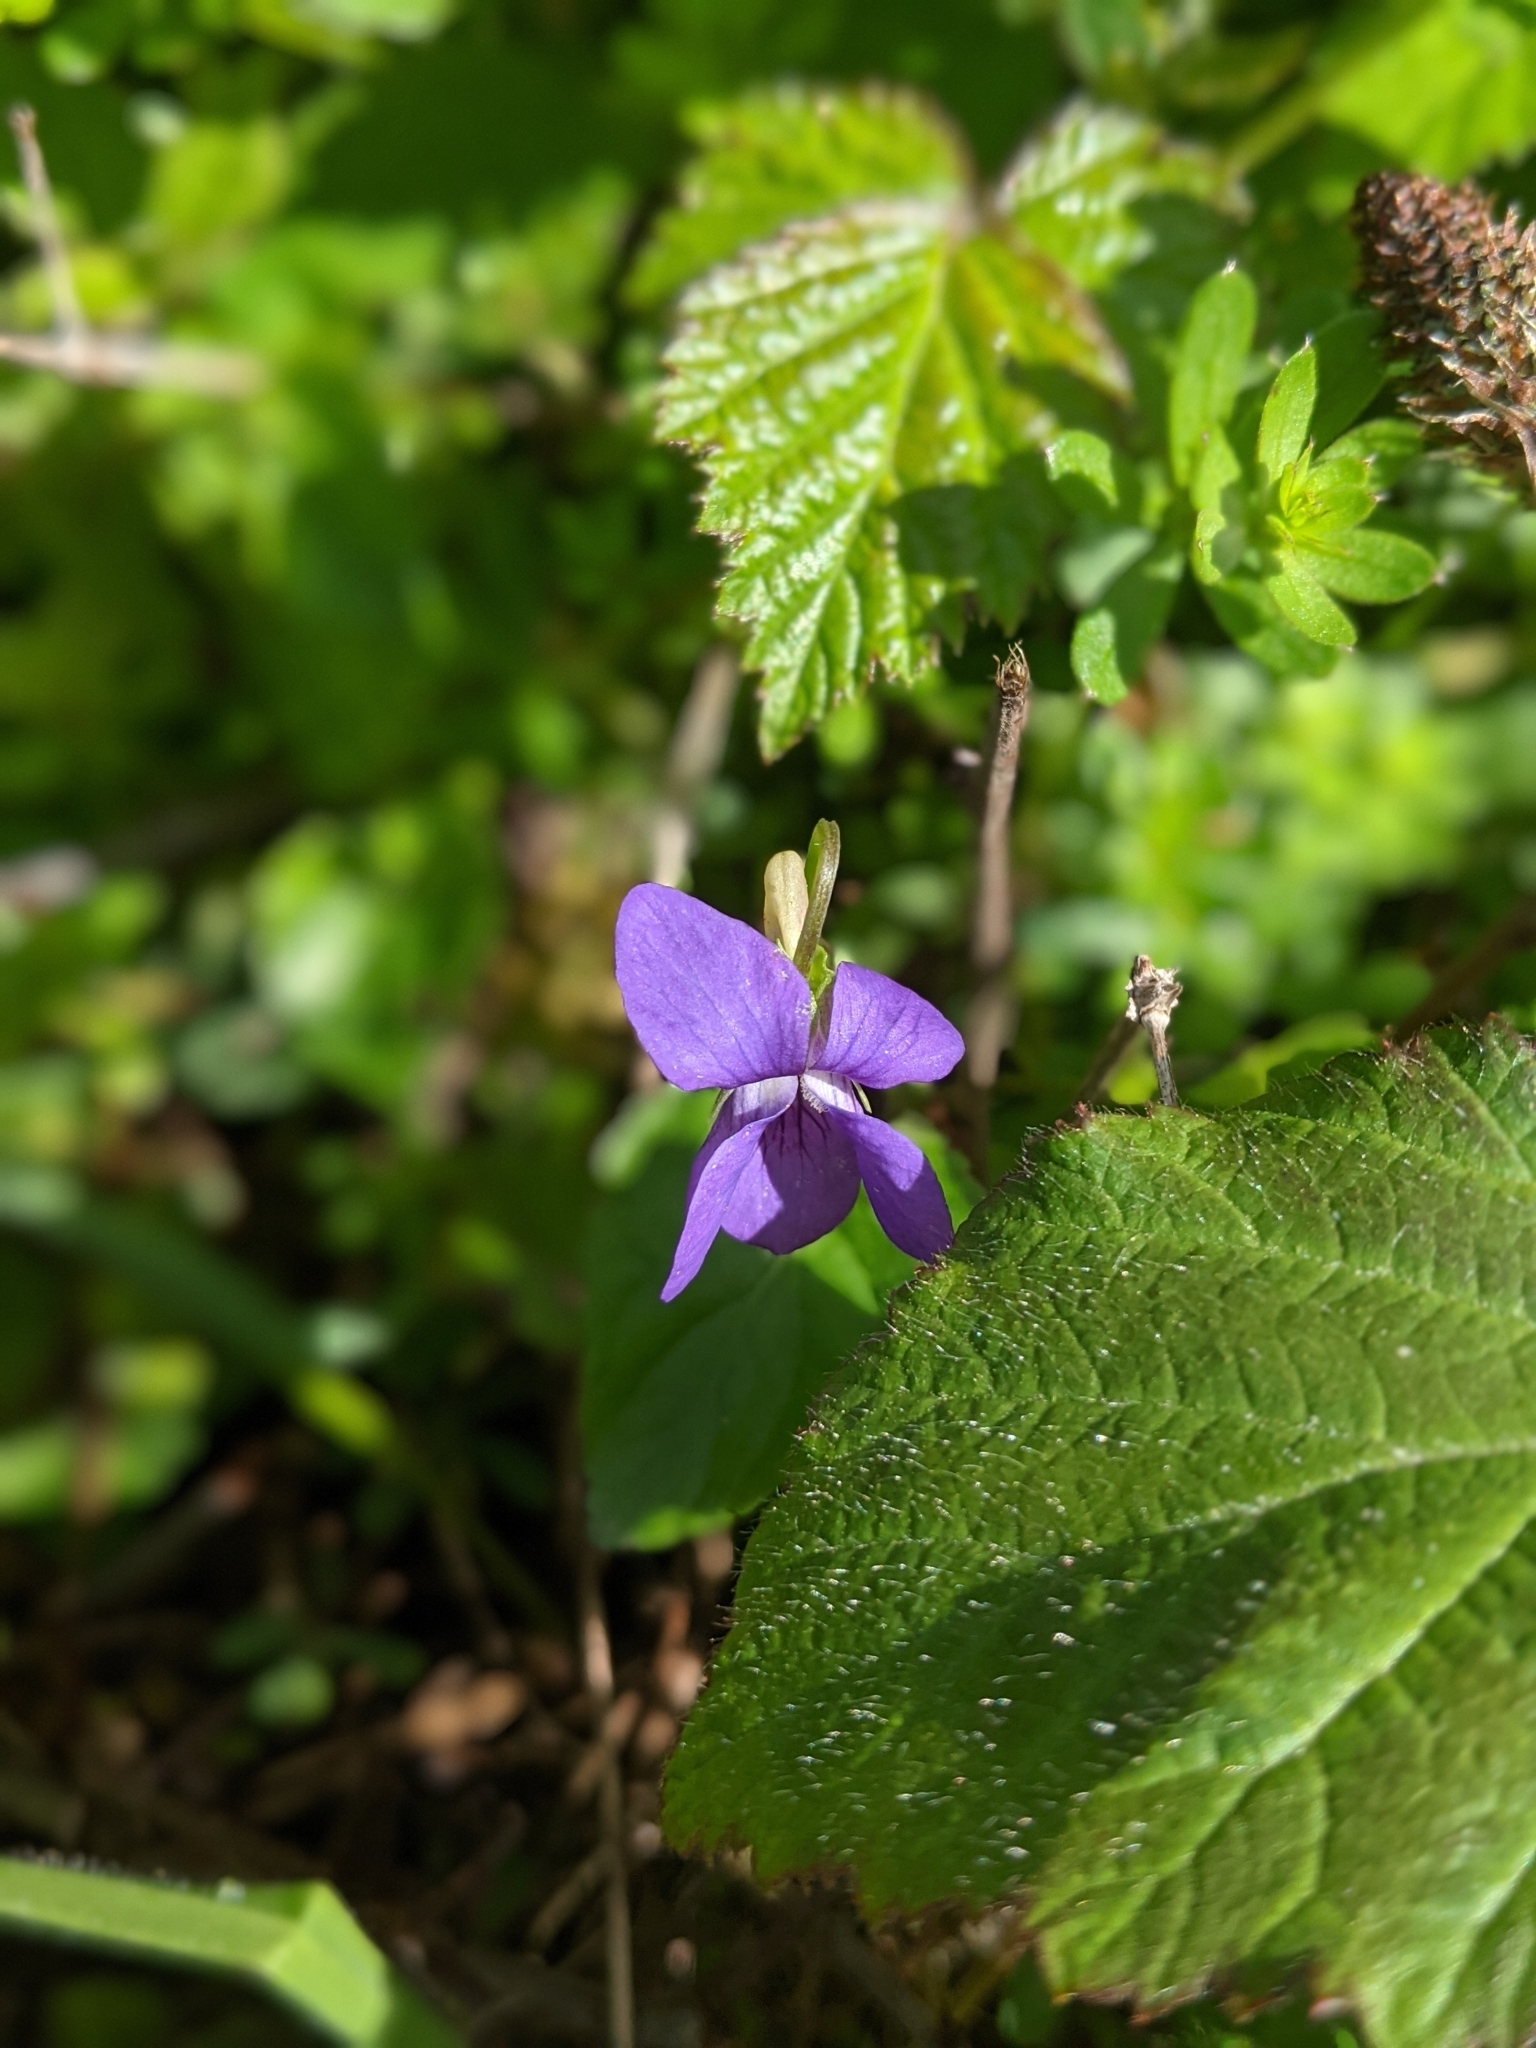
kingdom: Plantae
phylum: Tracheophyta
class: Magnoliopsida
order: Malpighiales
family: Violaceae
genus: Viola
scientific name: Viola riviniana
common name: Common dog-violet
